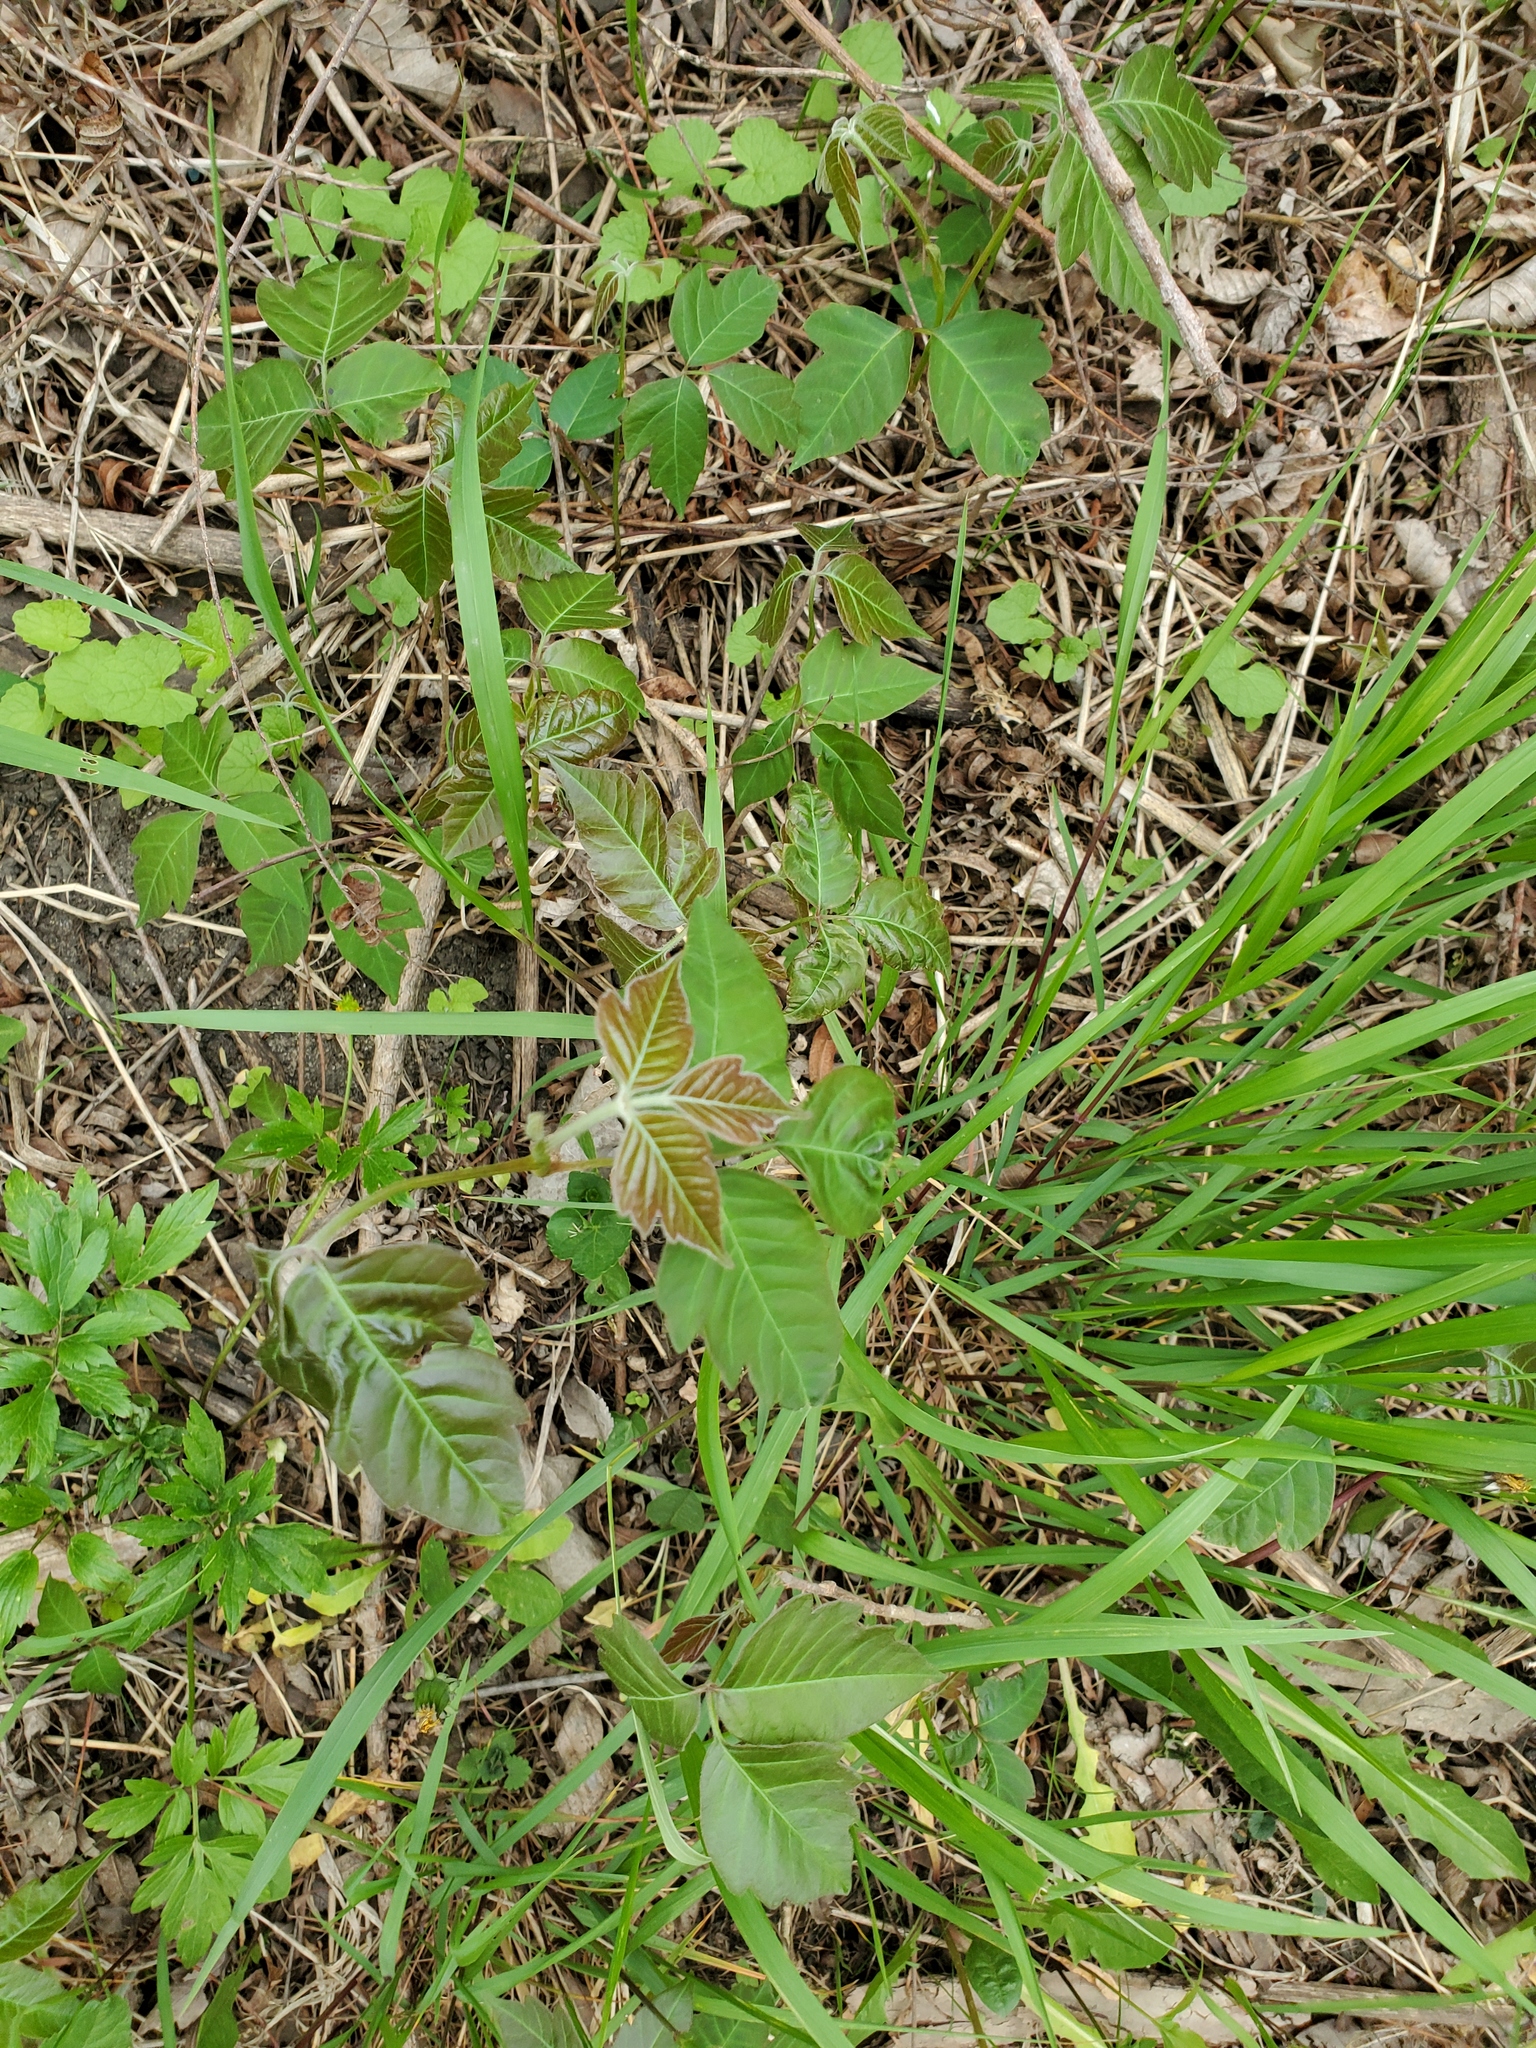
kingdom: Plantae
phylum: Tracheophyta
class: Magnoliopsida
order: Sapindales
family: Anacardiaceae
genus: Toxicodendron
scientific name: Toxicodendron radicans
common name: Poison ivy
